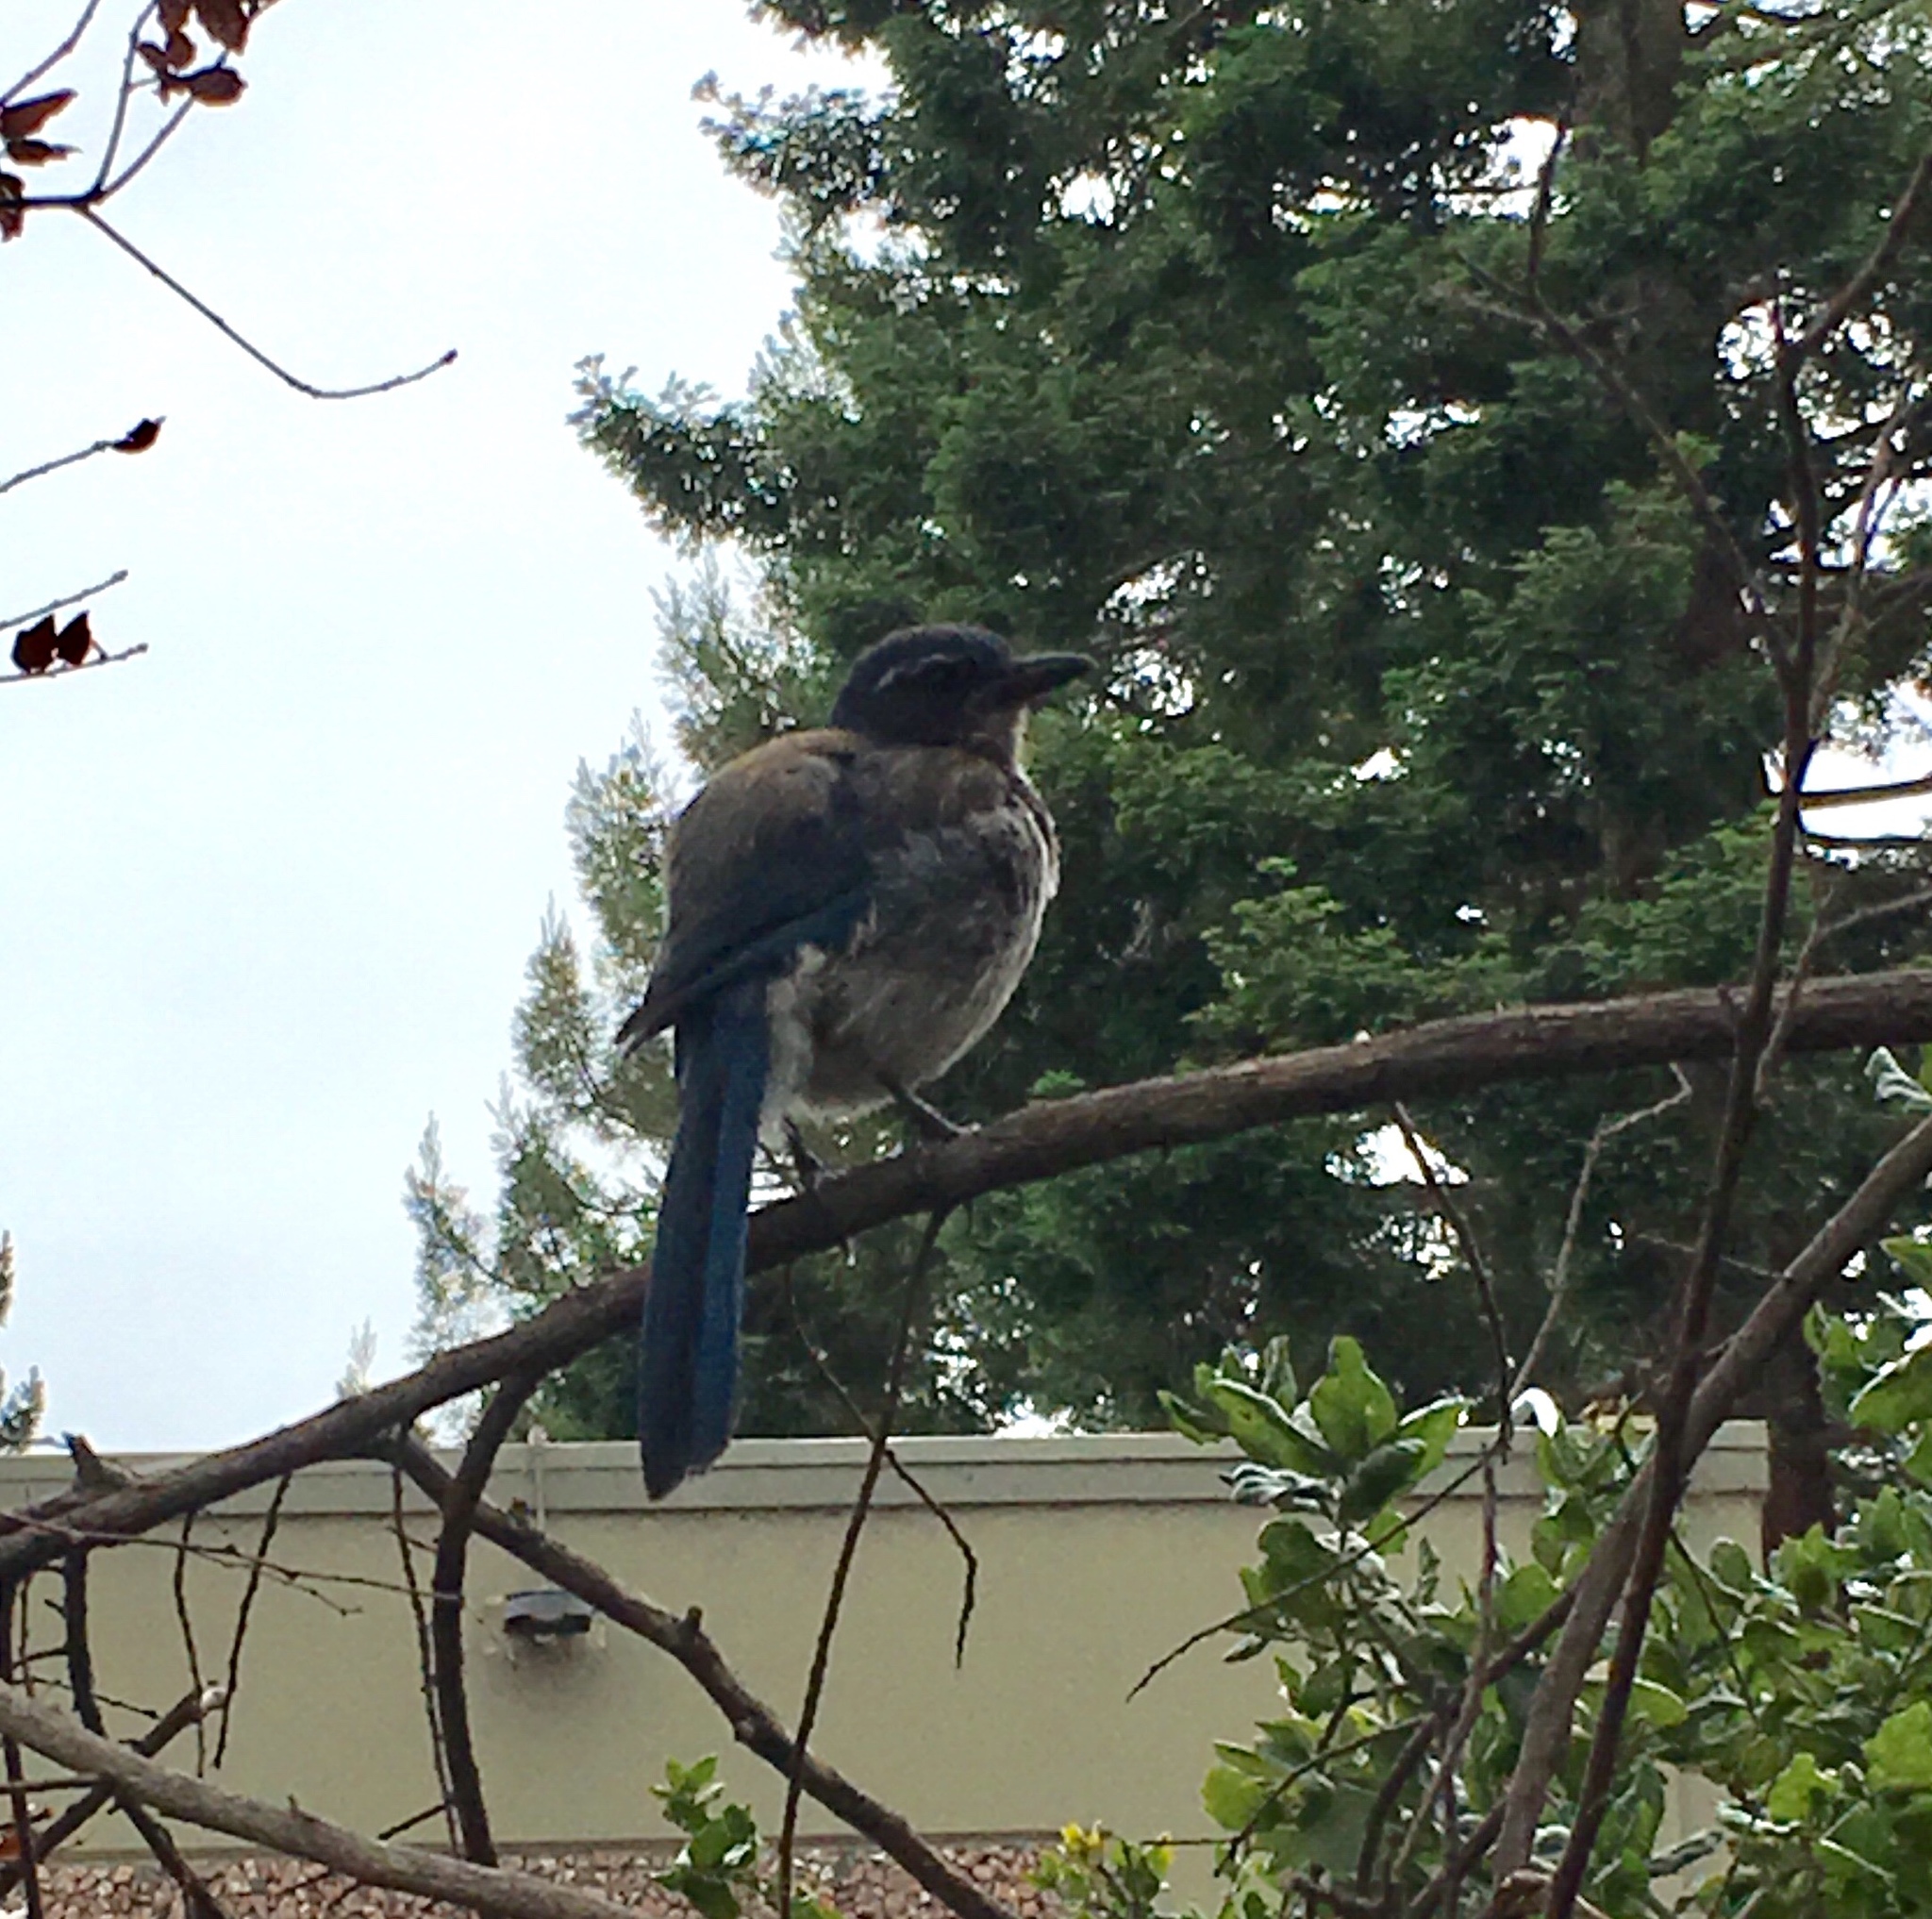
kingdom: Animalia
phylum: Chordata
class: Aves
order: Passeriformes
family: Corvidae
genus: Aphelocoma
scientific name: Aphelocoma californica
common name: California scrub-jay
